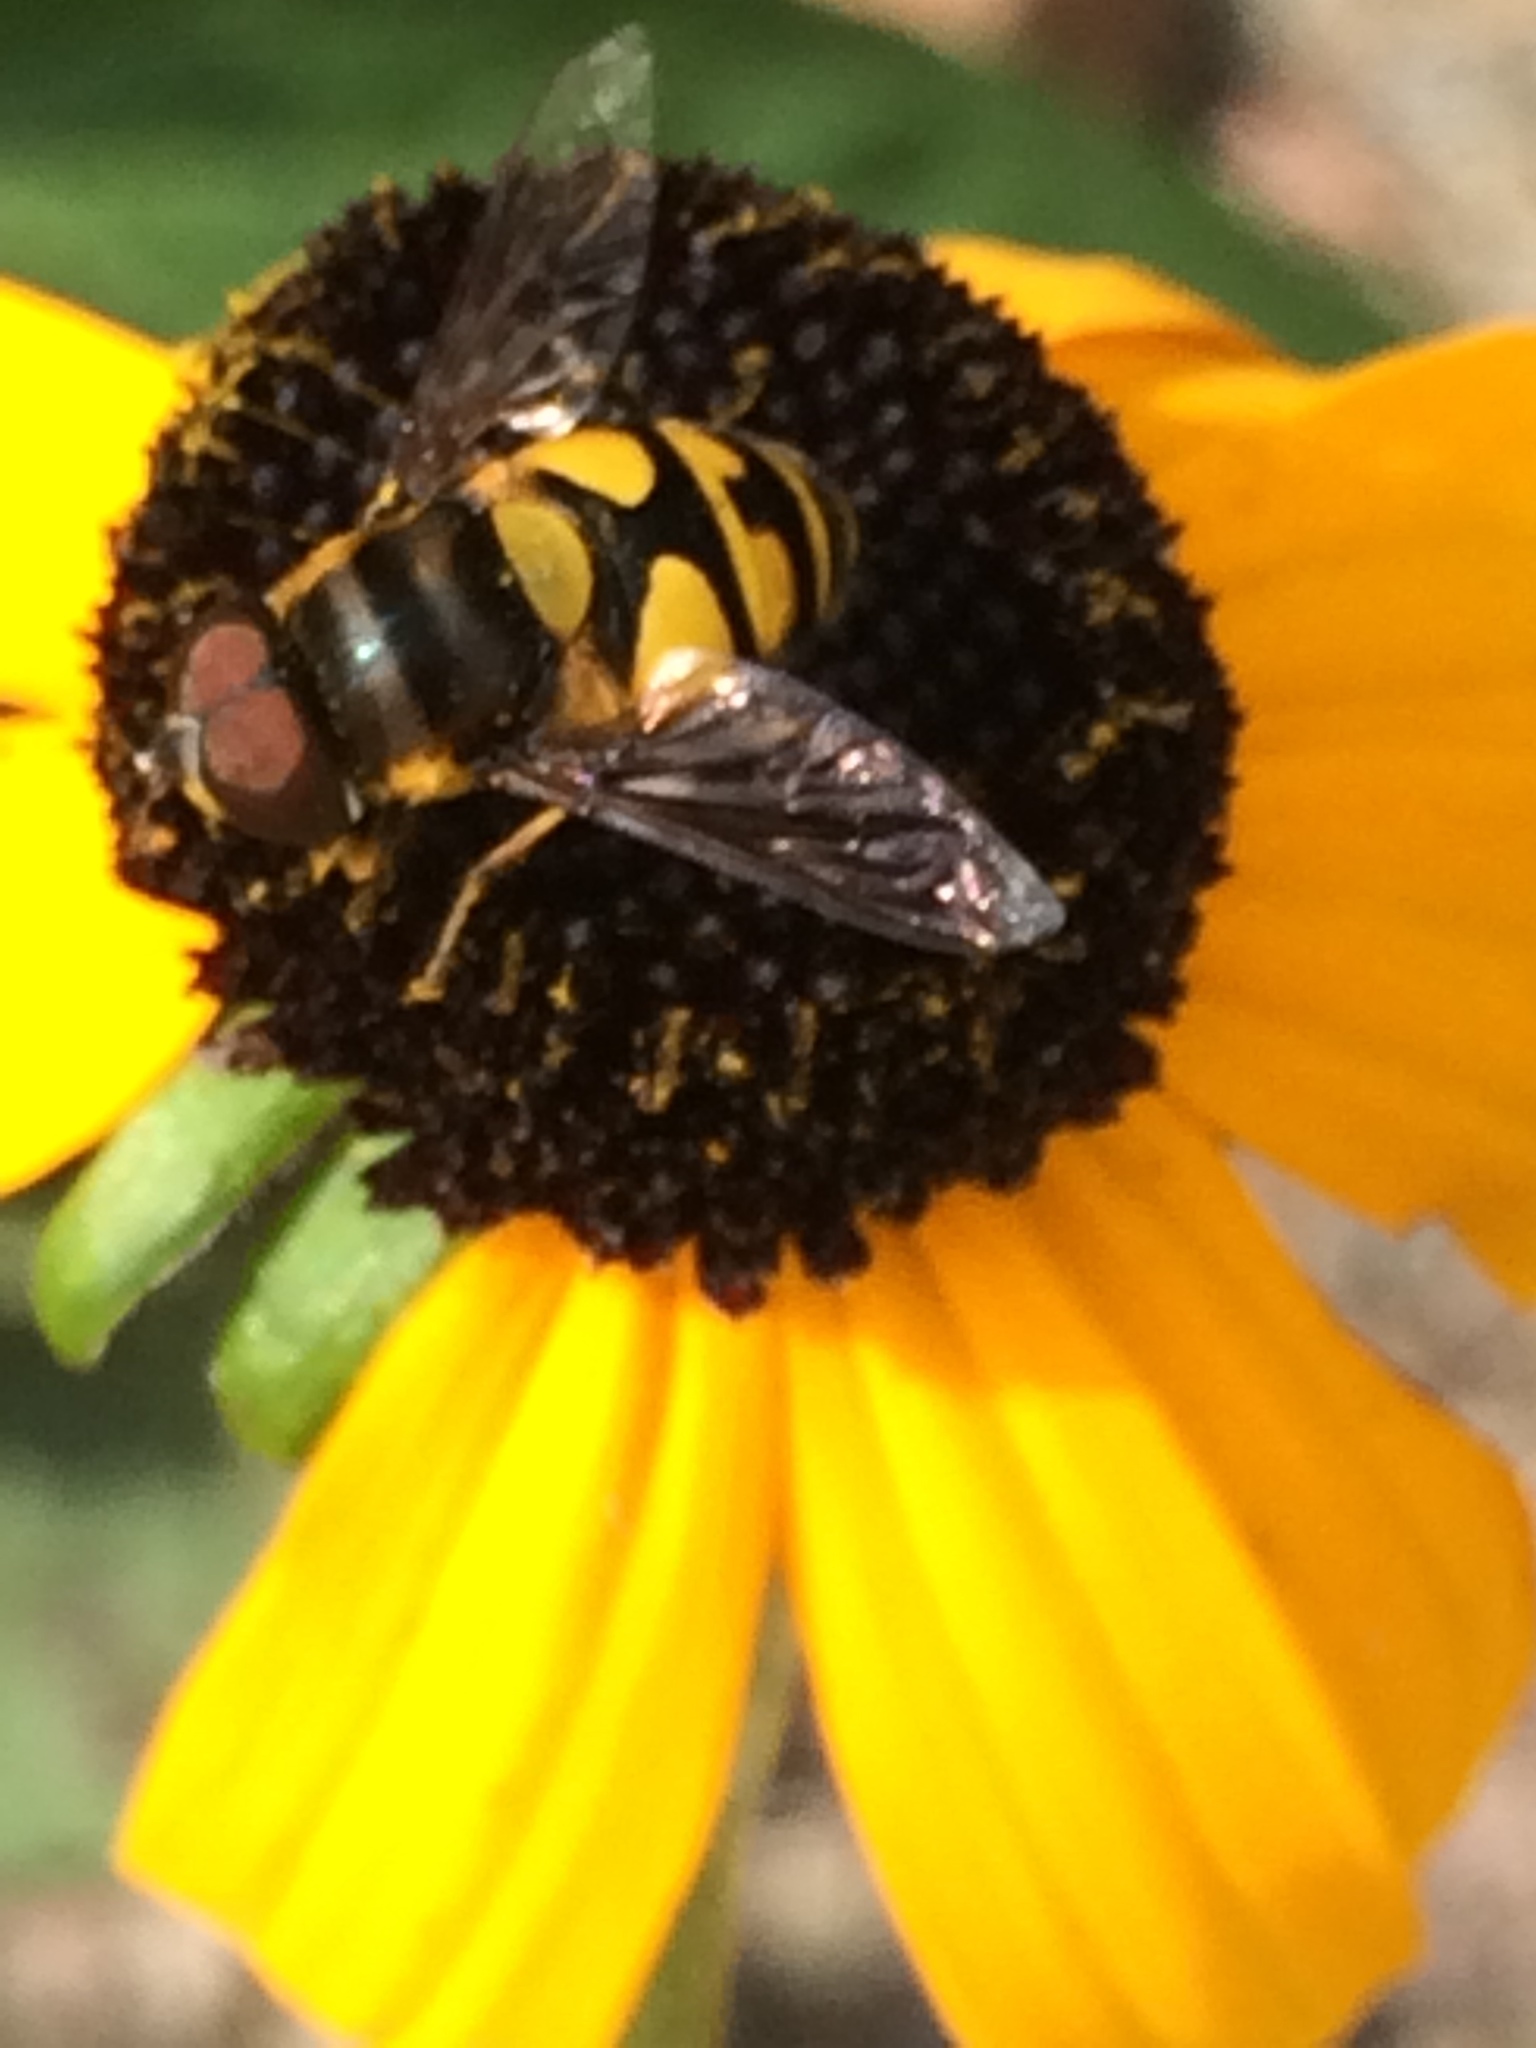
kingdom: Animalia
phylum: Arthropoda
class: Insecta
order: Diptera
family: Syrphidae
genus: Eristalis
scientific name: Eristalis transversa
